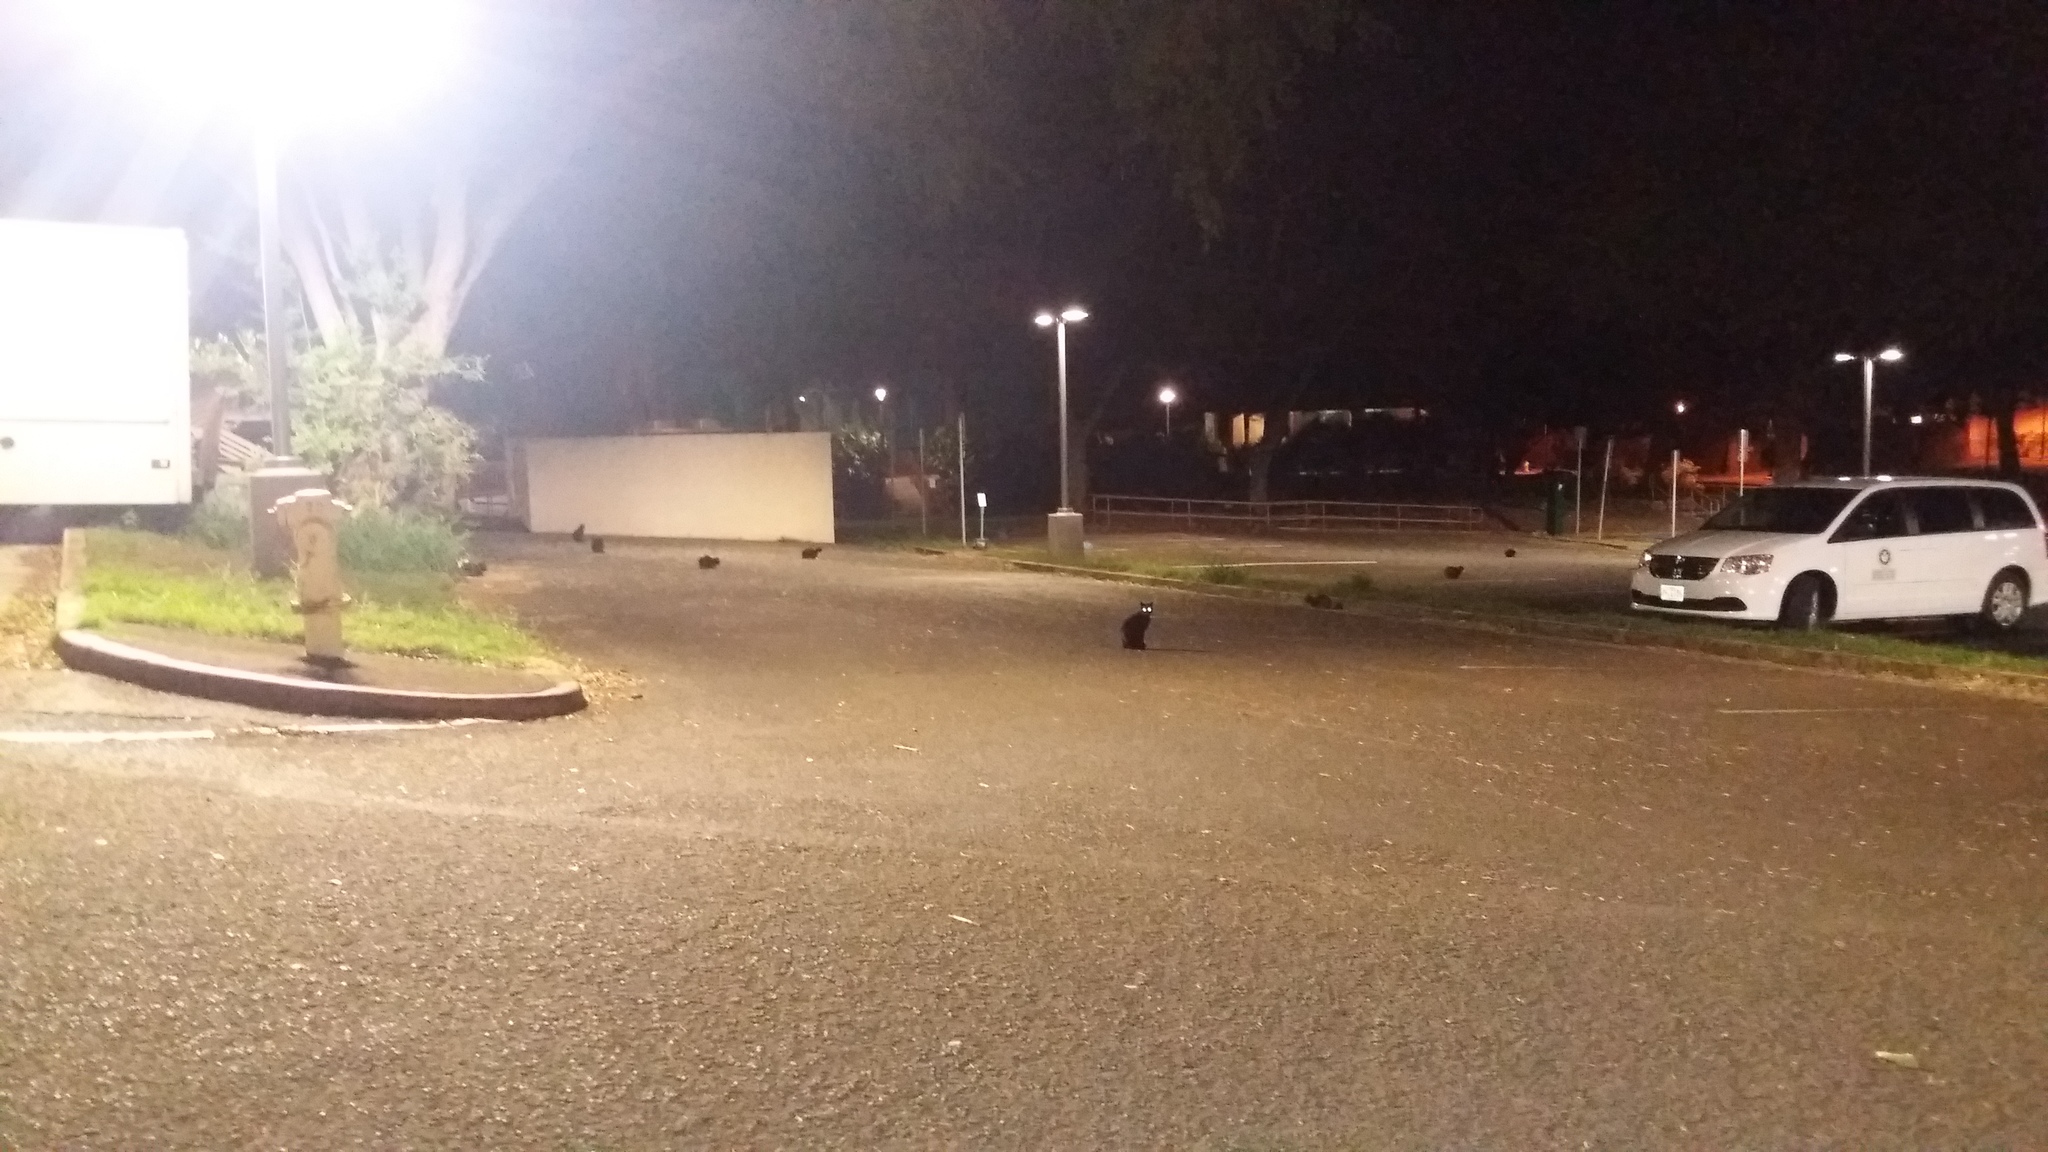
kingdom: Animalia
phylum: Chordata
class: Mammalia
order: Carnivora
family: Felidae
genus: Felis
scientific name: Felis catus
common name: Domestic cat
